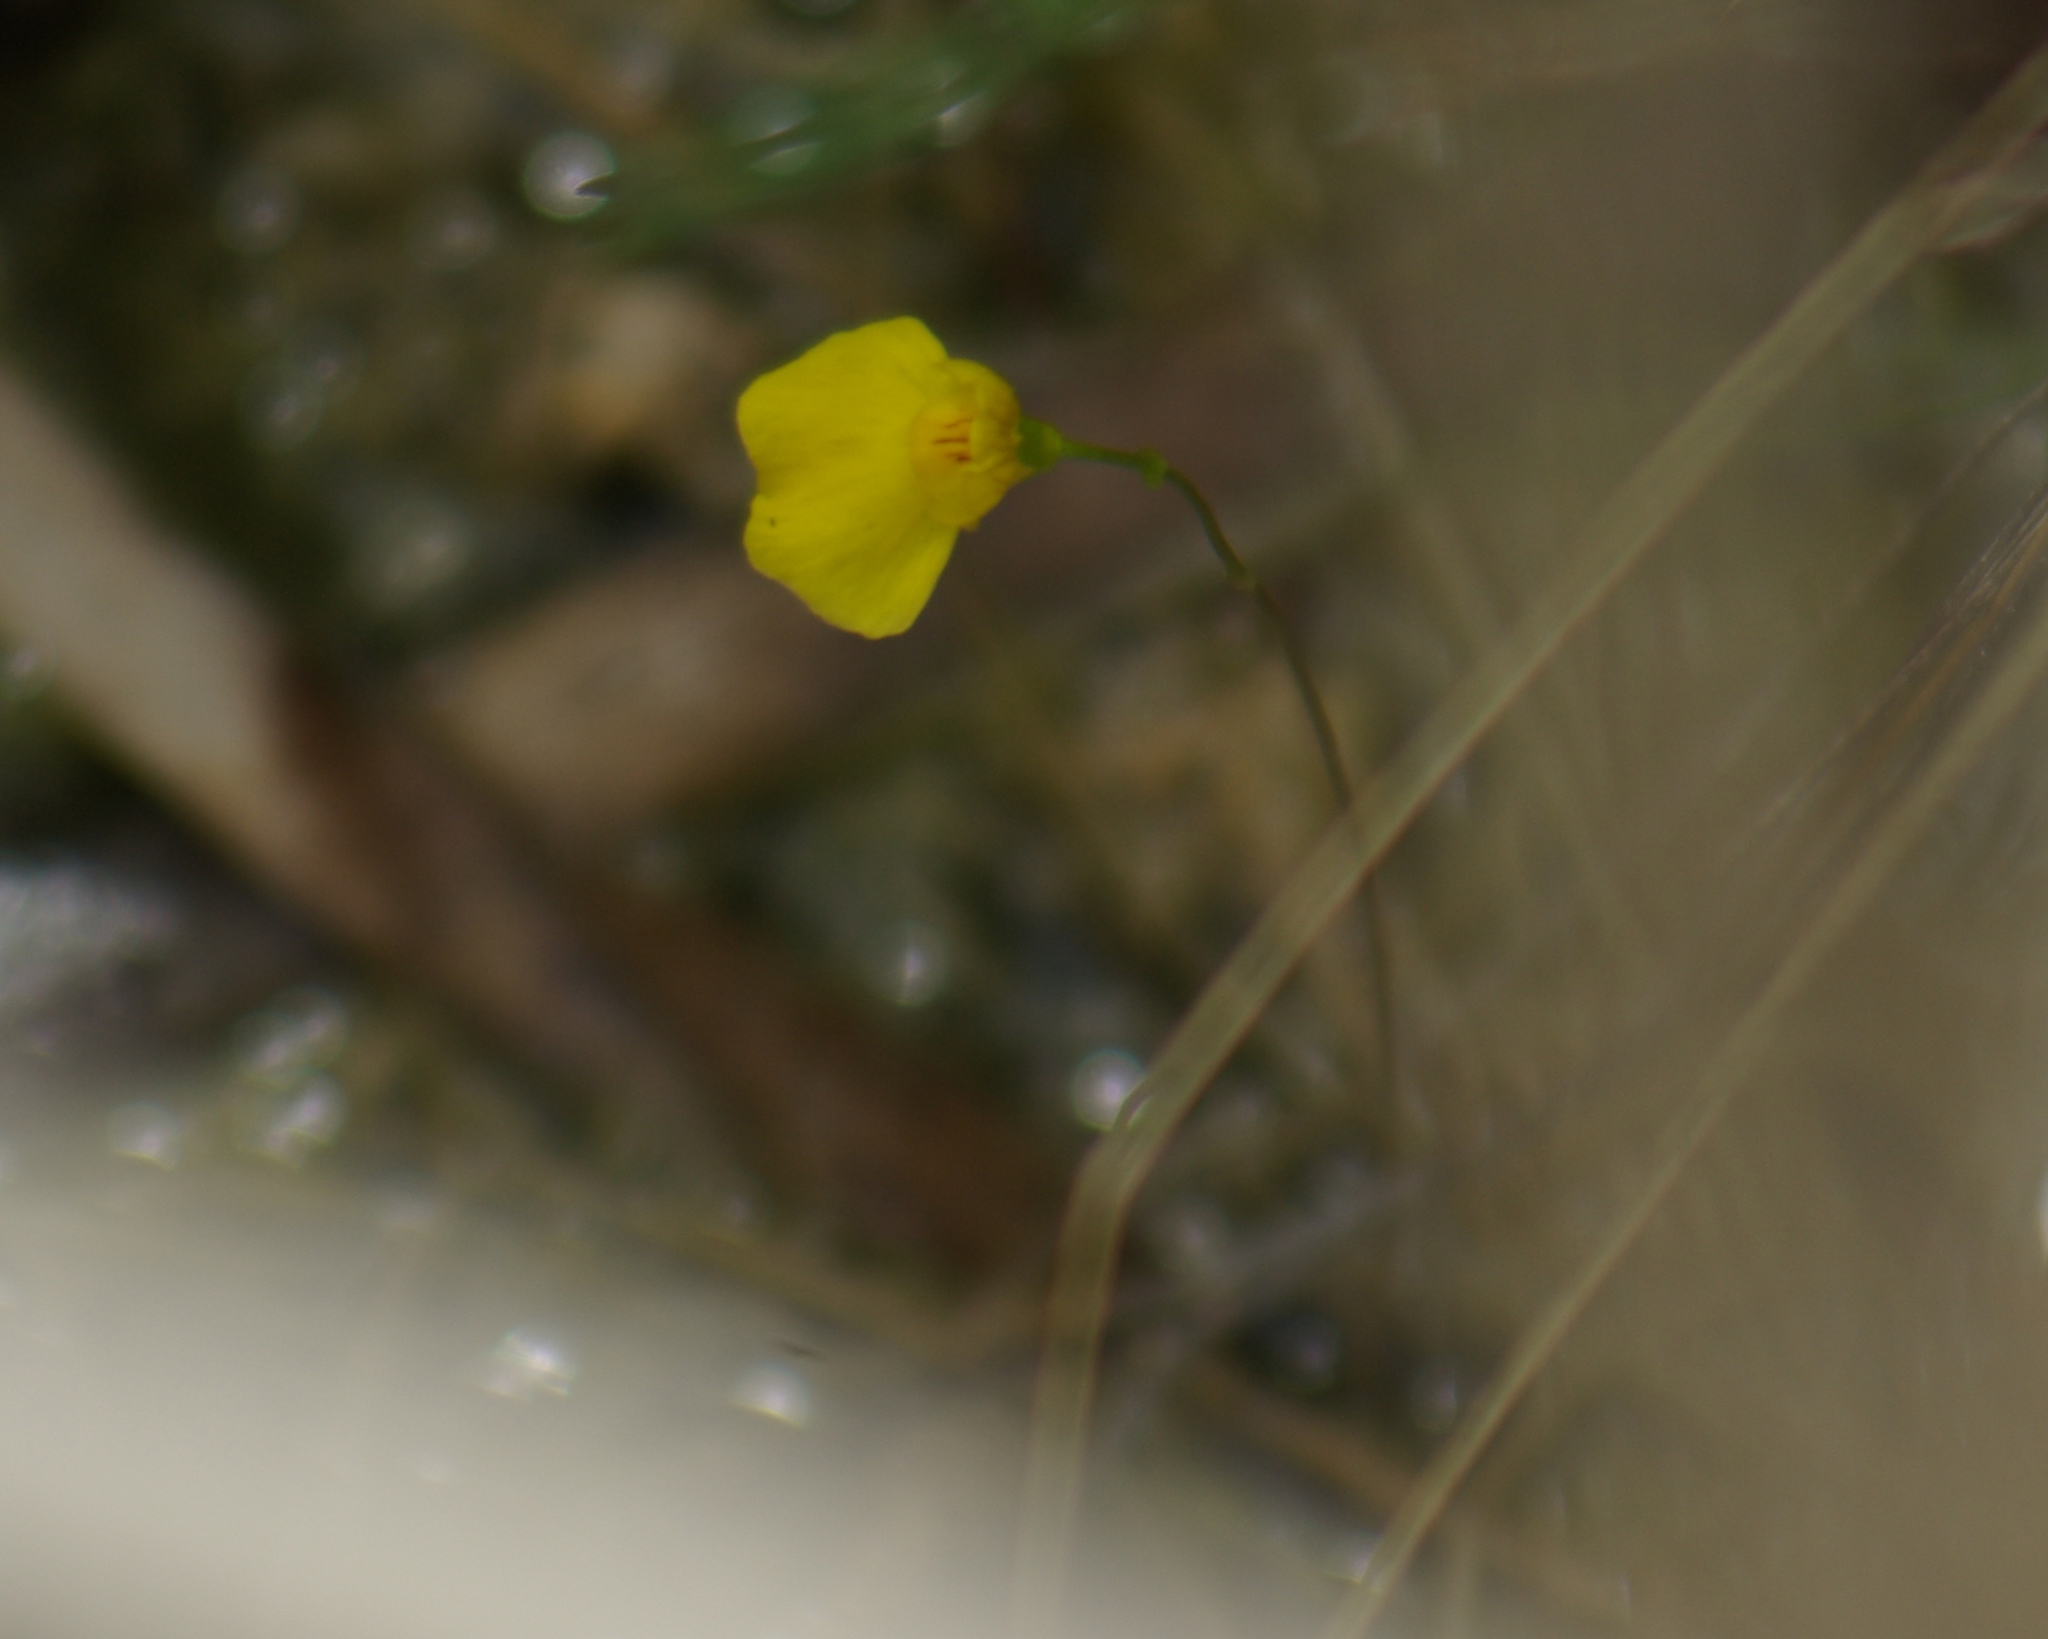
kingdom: Plantae
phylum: Tracheophyta
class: Magnoliopsida
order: Lamiales
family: Lentibulariaceae
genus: Utricularia
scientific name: Utricularia intermedia
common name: Intermediate bladderwort
